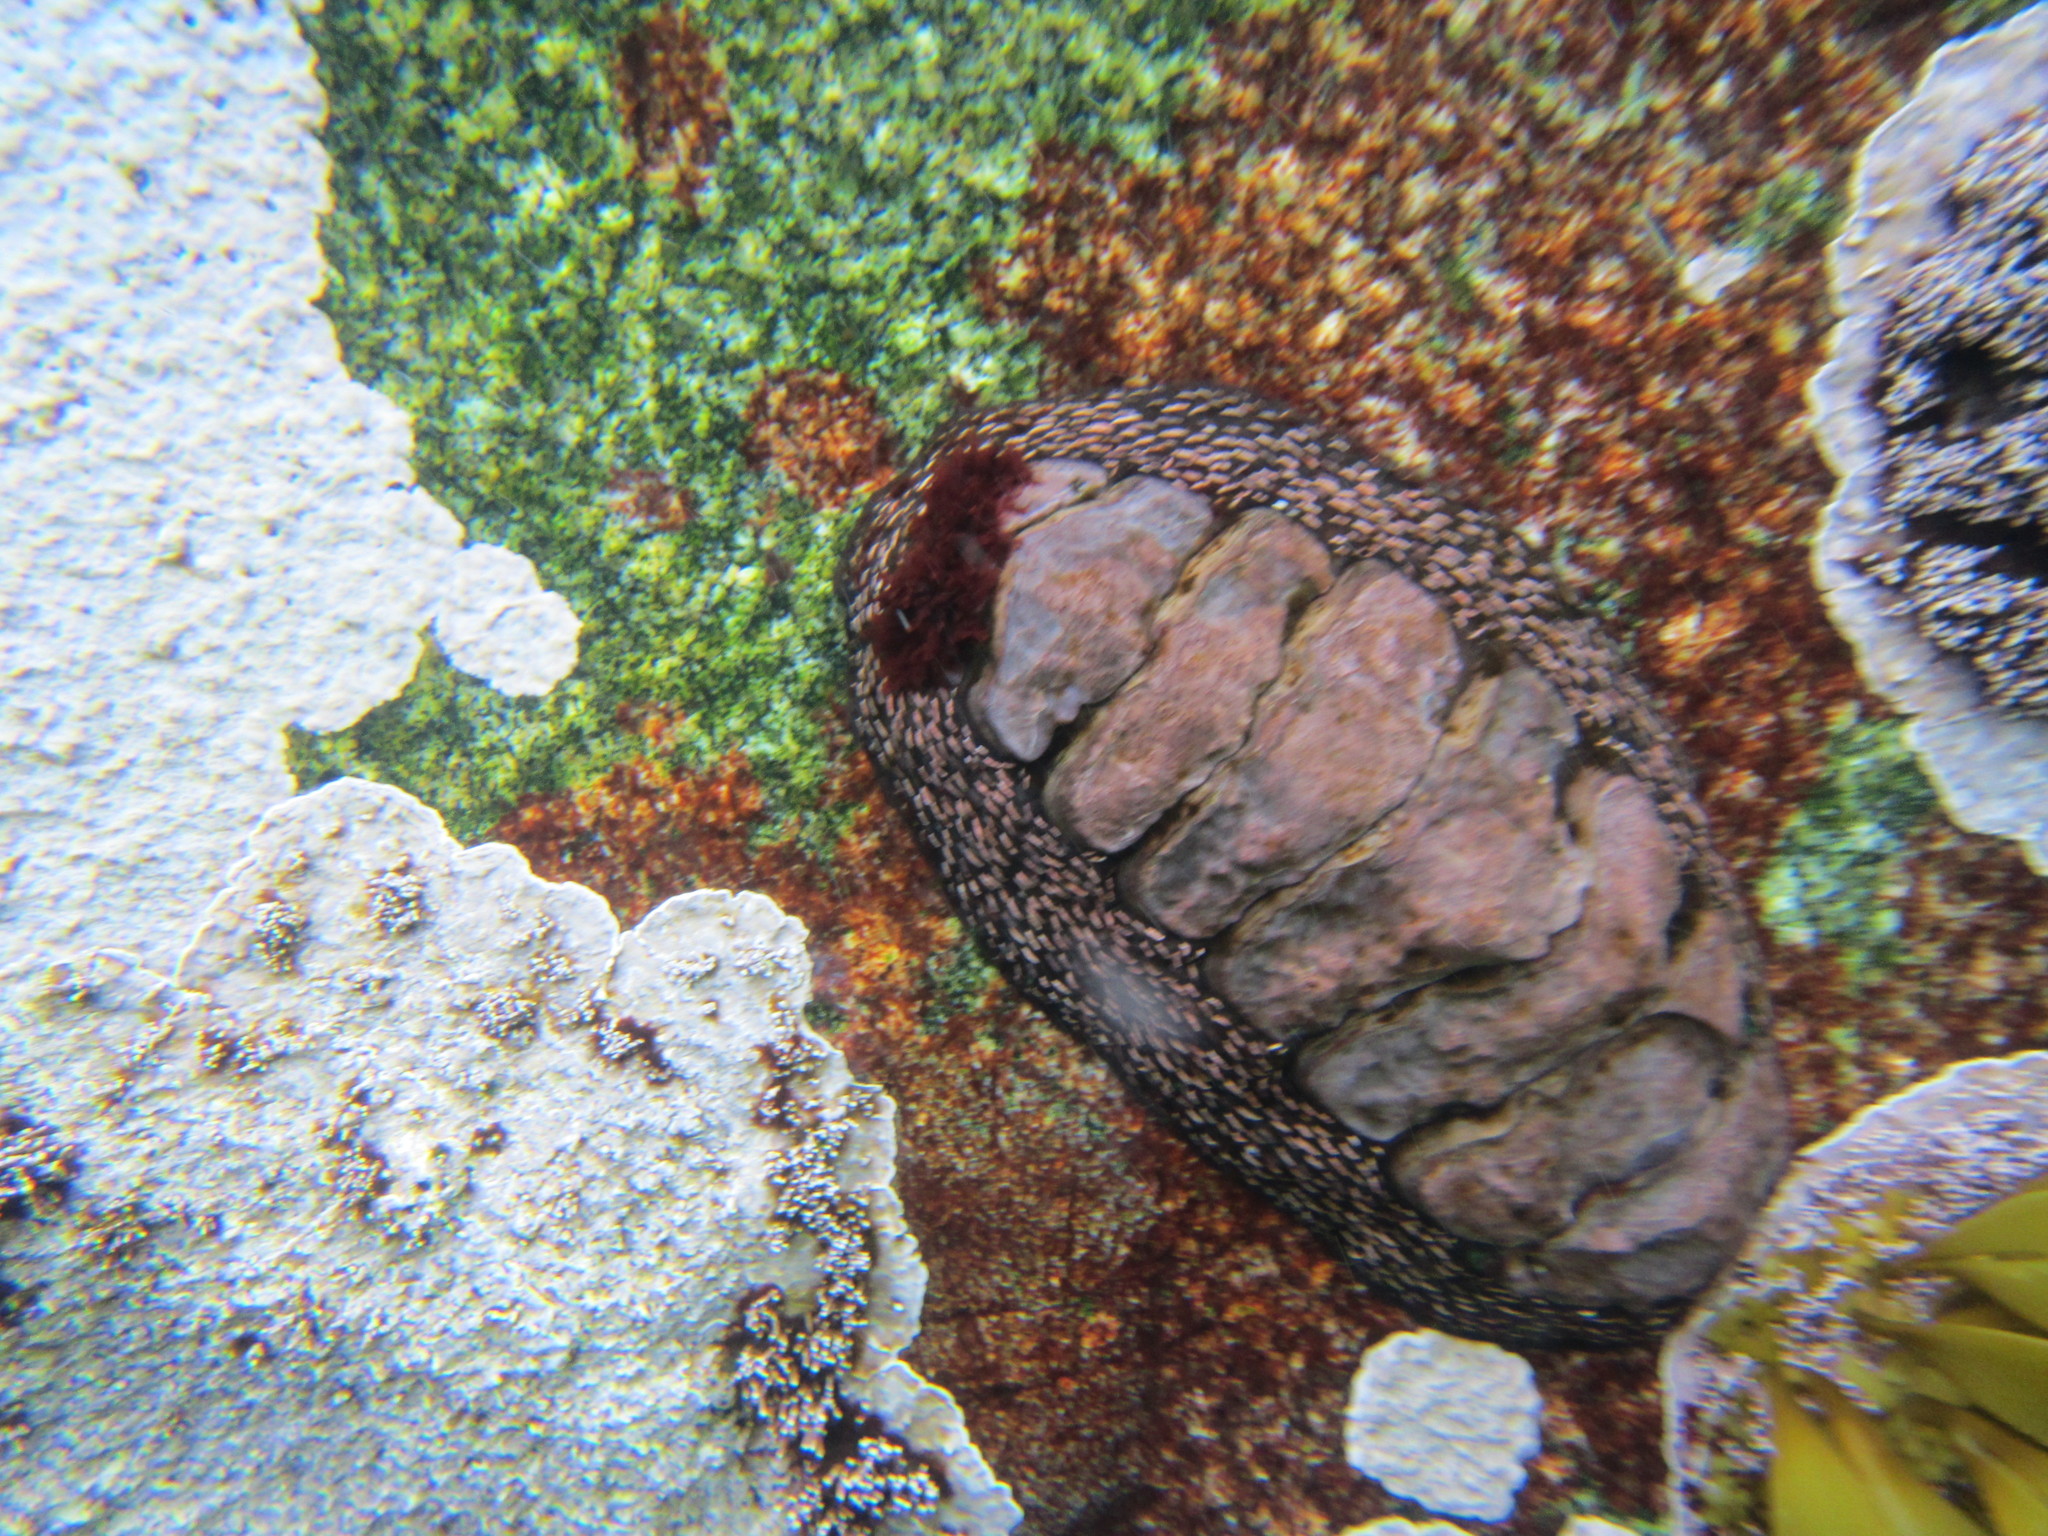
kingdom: Animalia
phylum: Mollusca
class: Polyplacophora
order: Chitonida
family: Chitonidae
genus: Enoplochiton
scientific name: Enoplochiton niger
